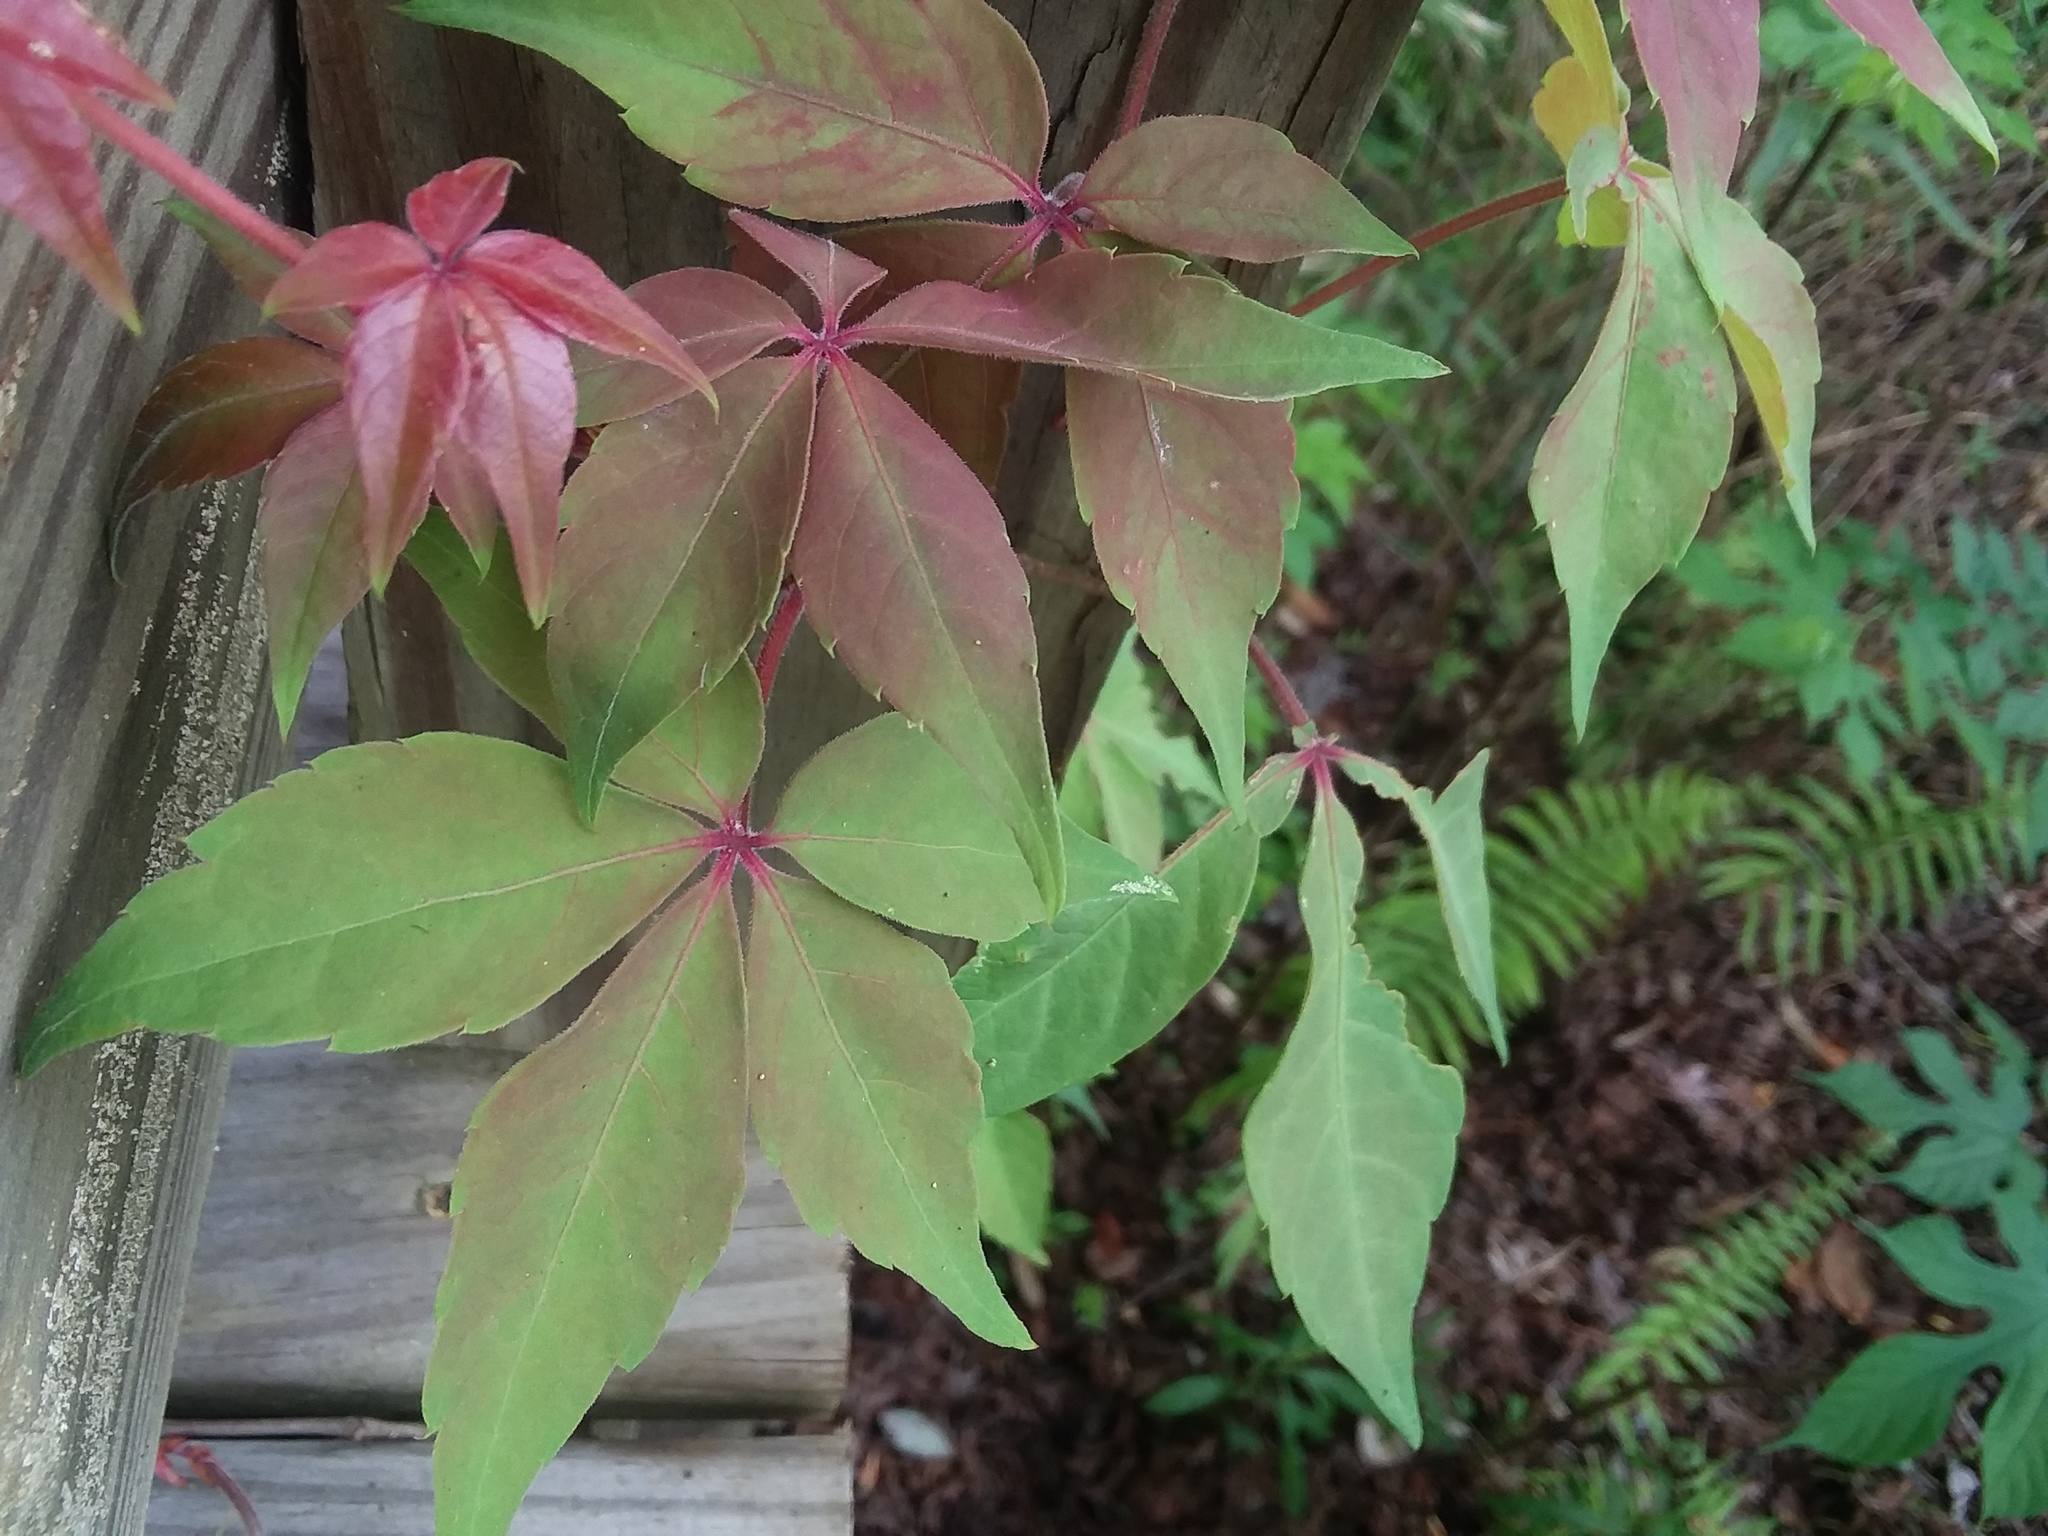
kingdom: Plantae
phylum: Tracheophyta
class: Magnoliopsida
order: Vitales
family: Vitaceae
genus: Parthenocissus
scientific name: Parthenocissus quinquefolia
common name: Virginia-creeper
